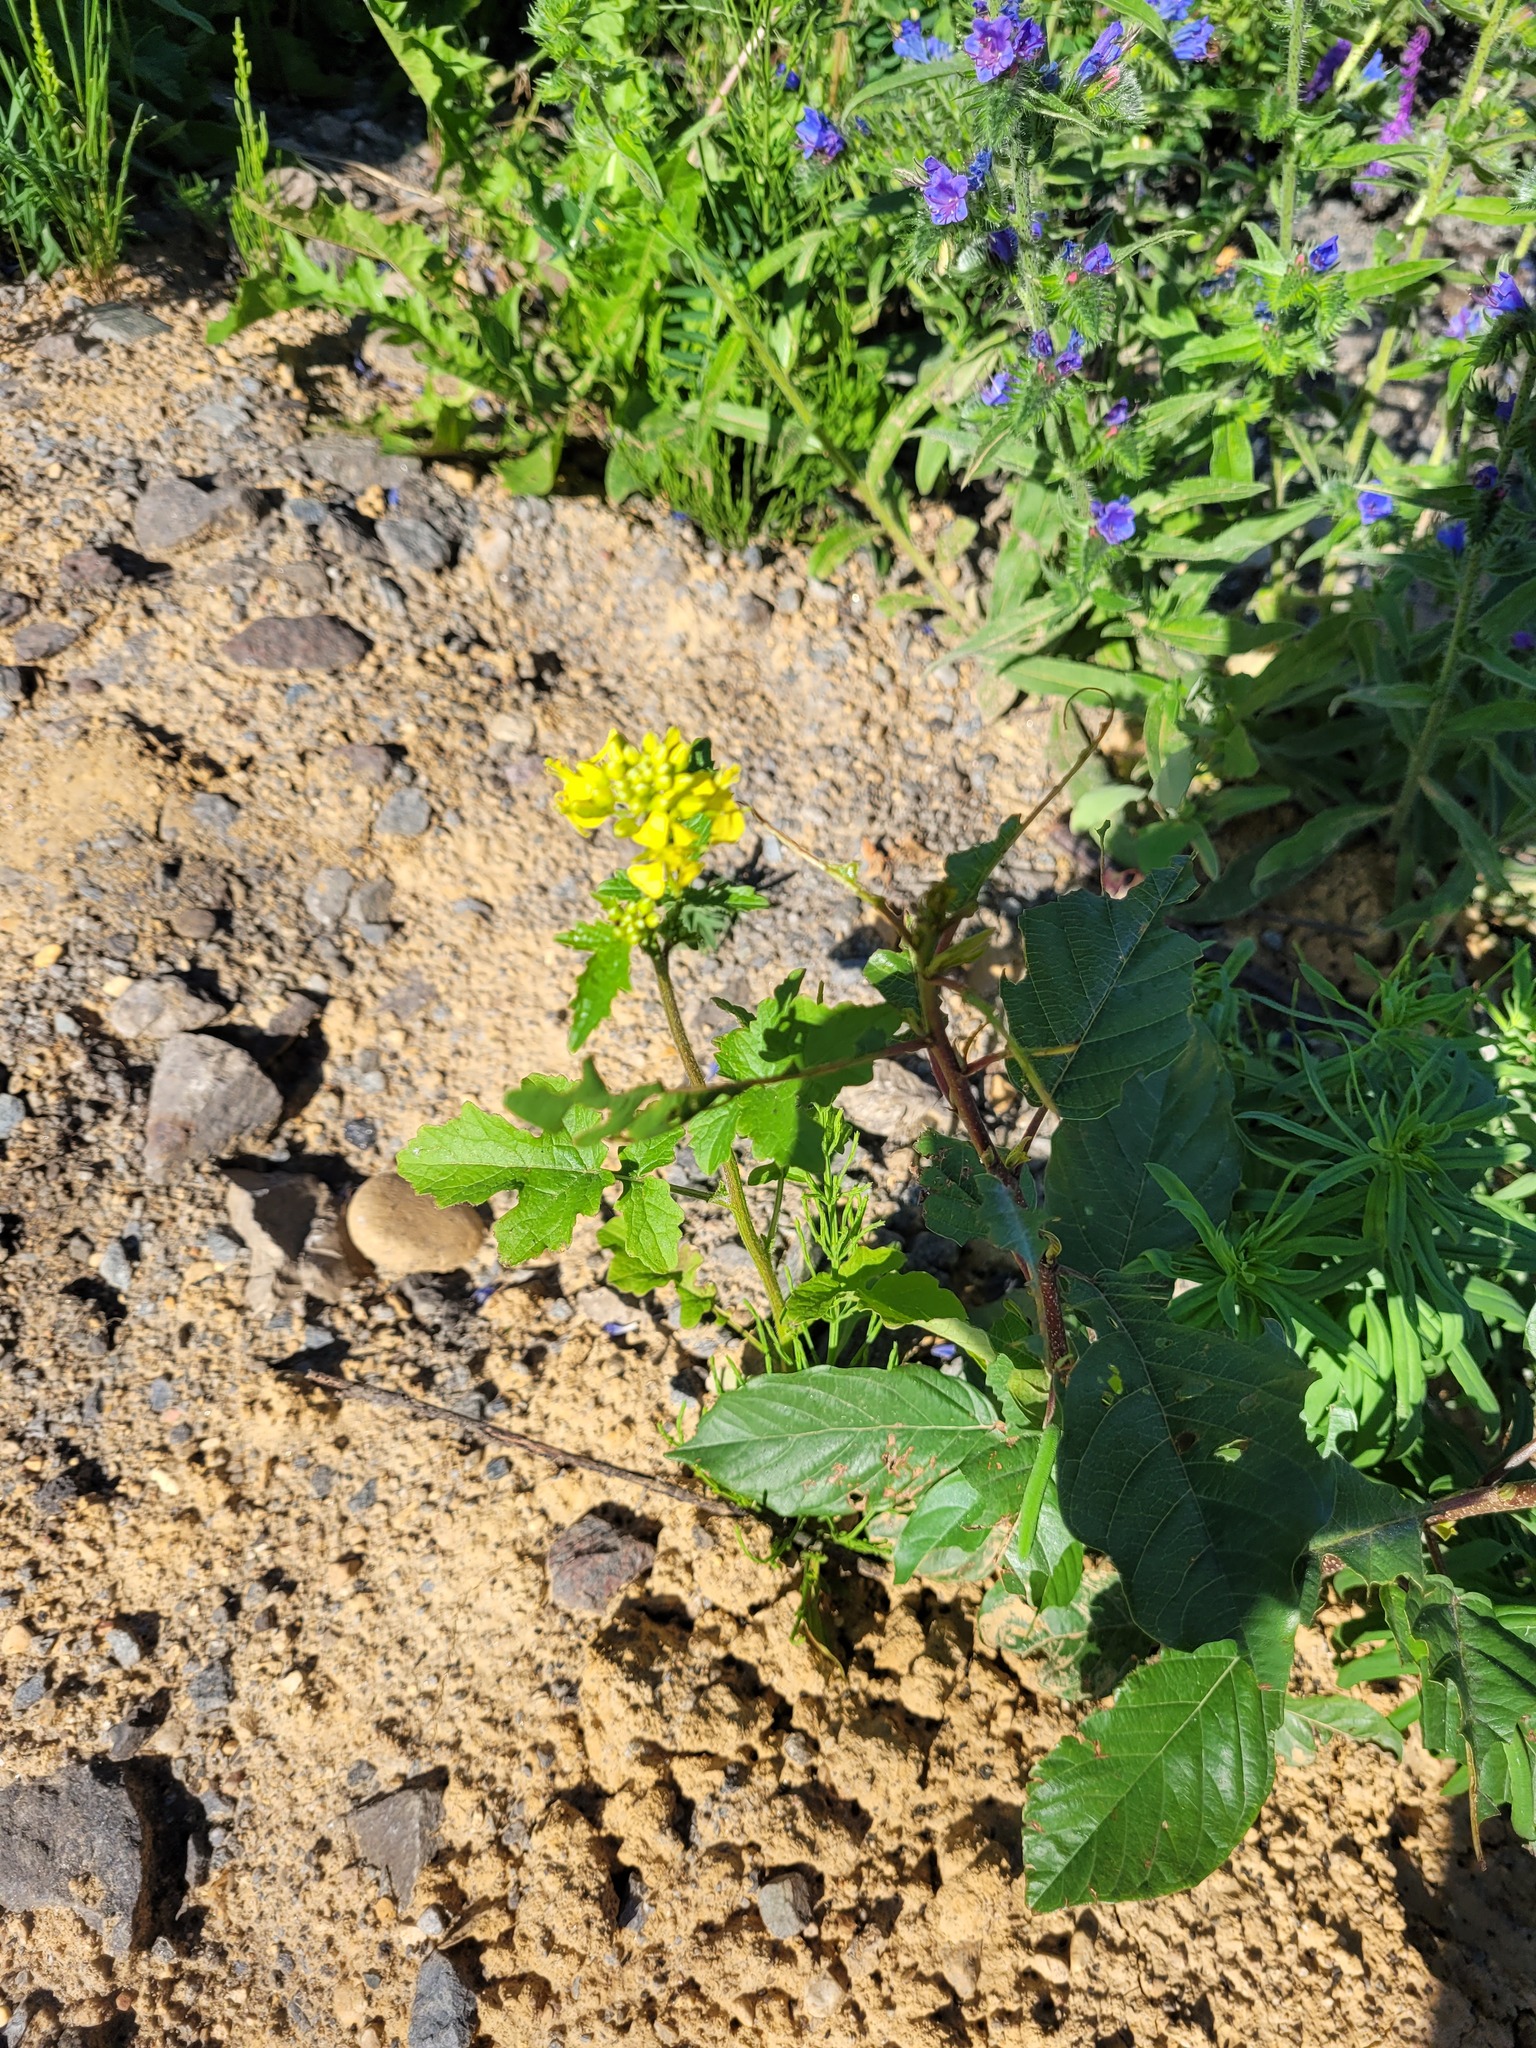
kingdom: Plantae
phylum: Tracheophyta
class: Magnoliopsida
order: Brassicales
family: Brassicaceae
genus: Sinapis
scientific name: Sinapis alba
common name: White mustard
